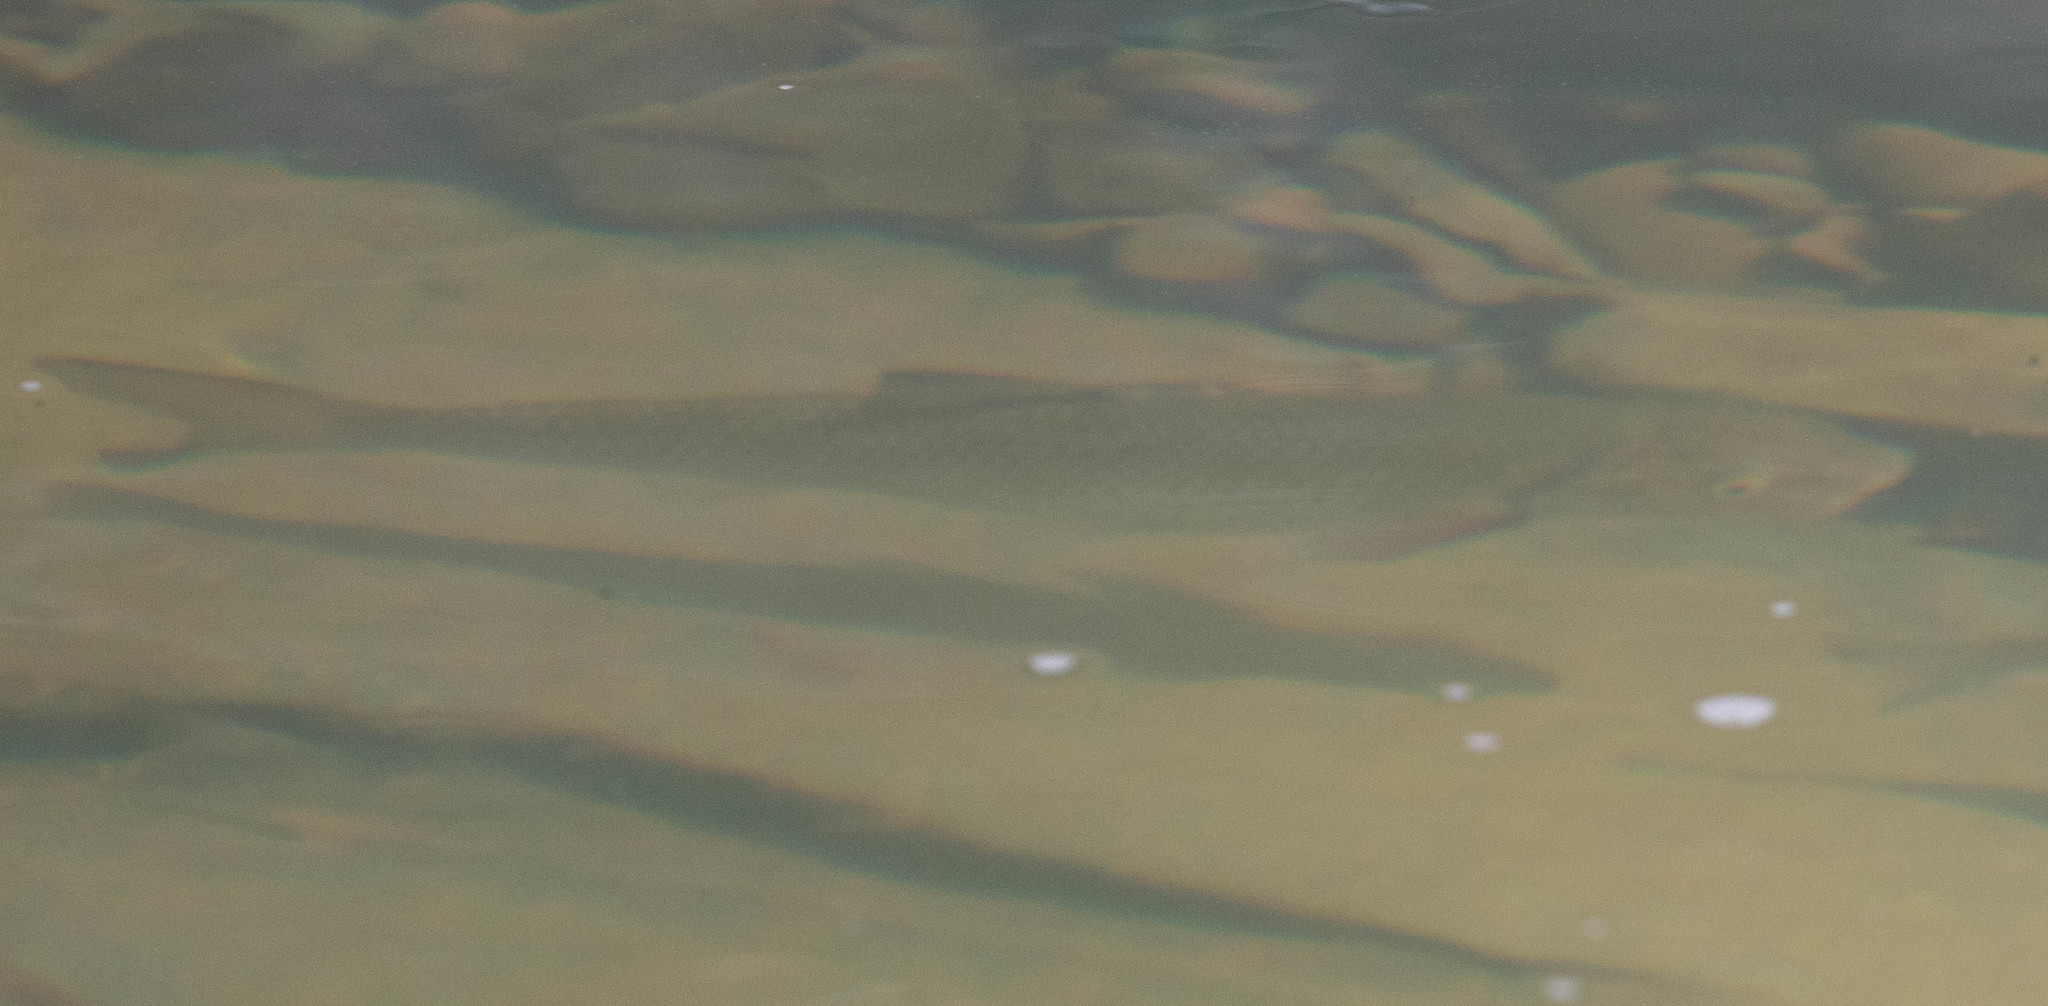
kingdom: Animalia
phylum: Chordata
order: Cypriniformes
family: Cyprinidae
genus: Semotilus
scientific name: Semotilus corporalis
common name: Fallfish
